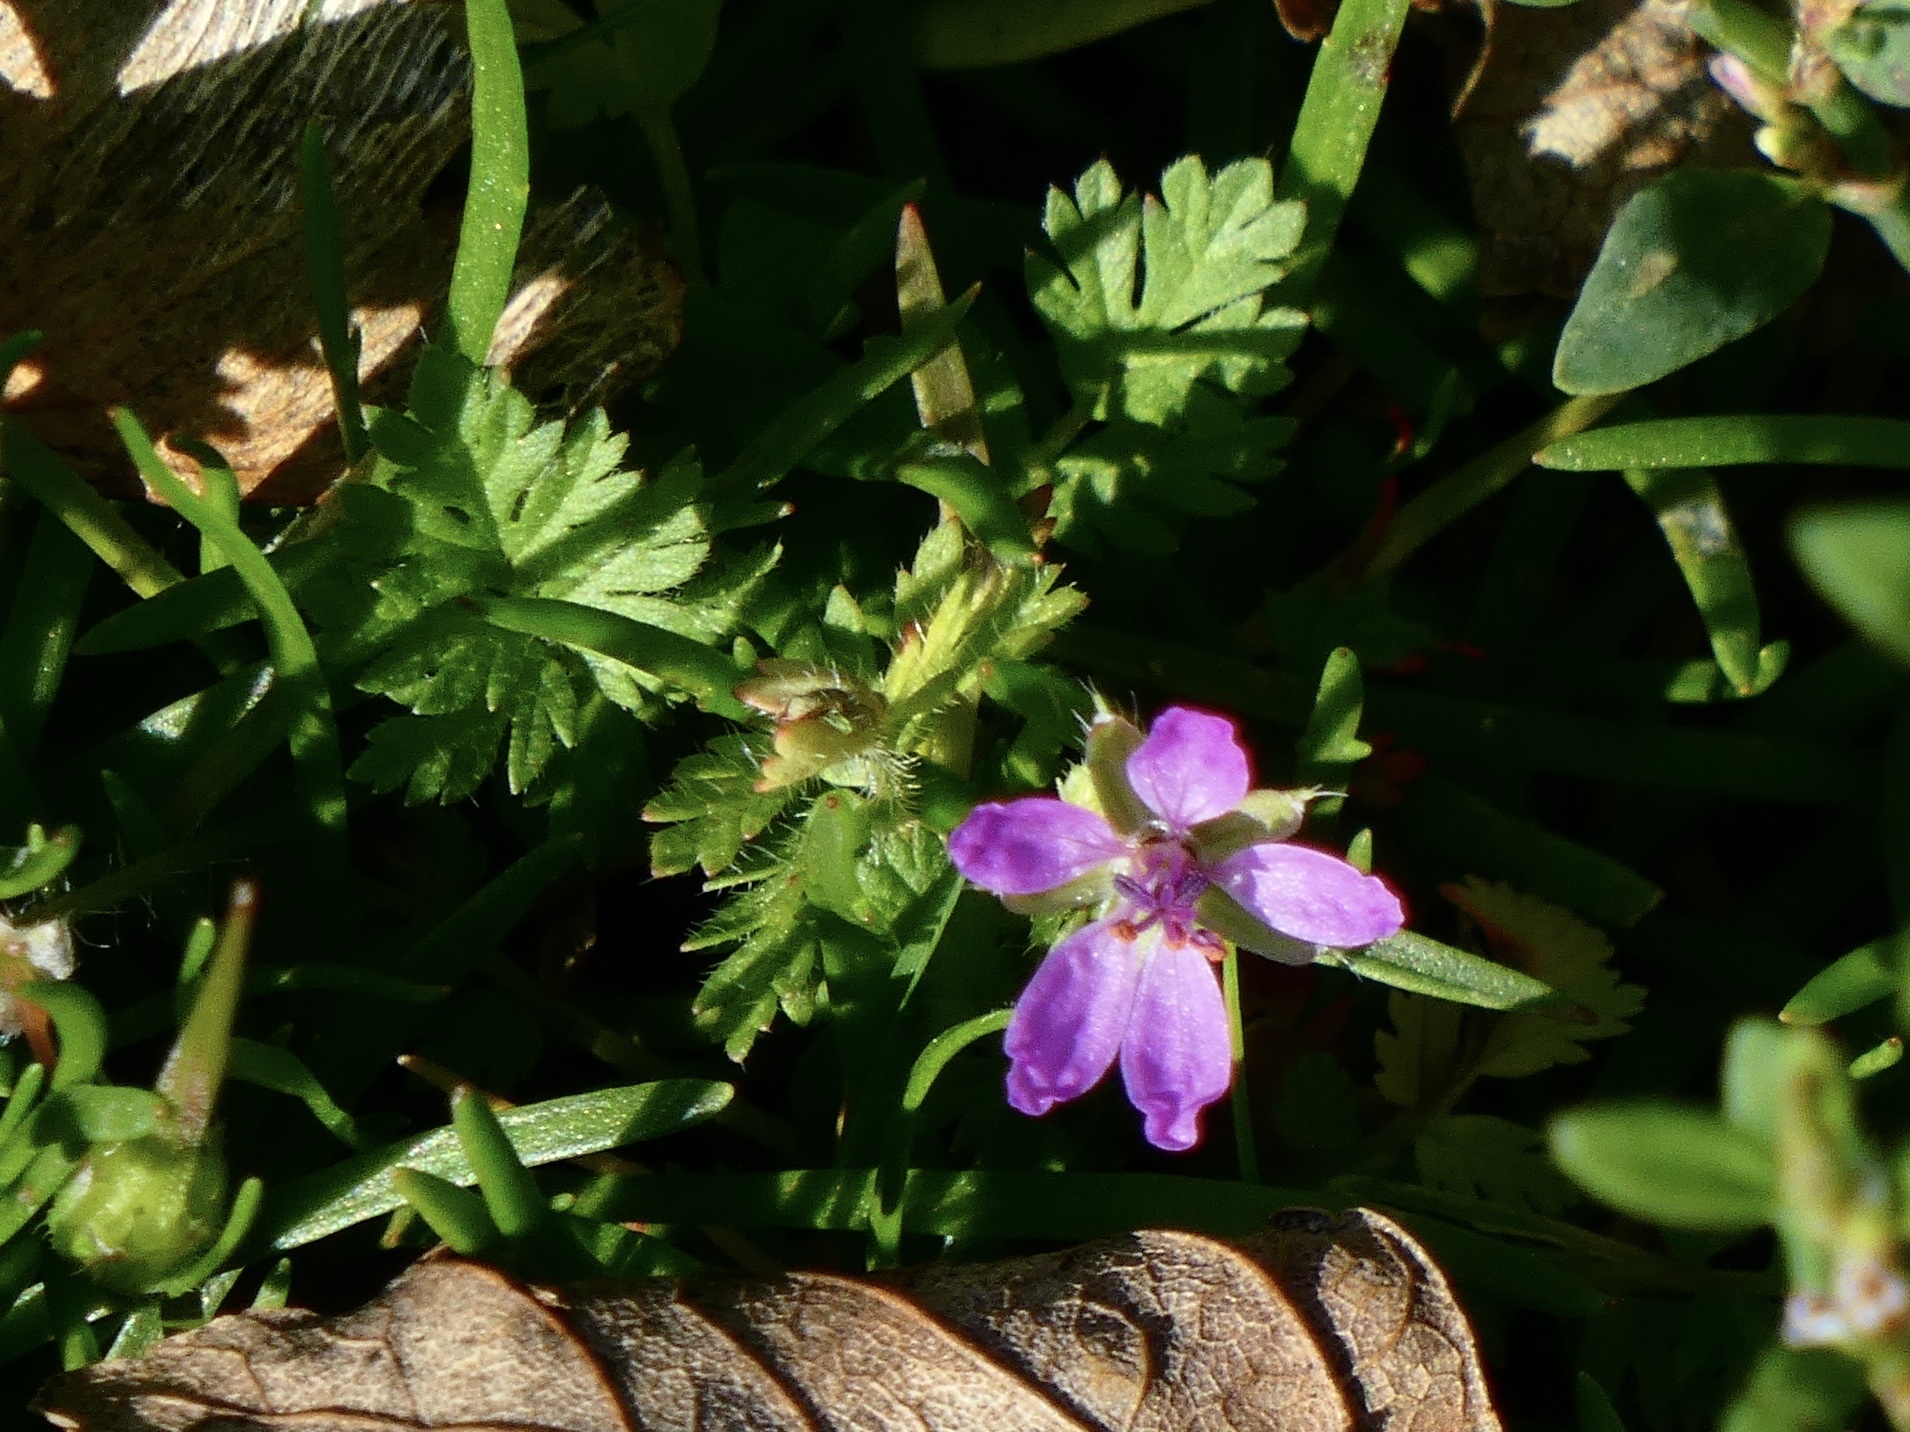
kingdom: Plantae
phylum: Tracheophyta
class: Magnoliopsida
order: Geraniales
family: Geraniaceae
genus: Erodium
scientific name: Erodium cicutarium
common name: Common stork's-bill
